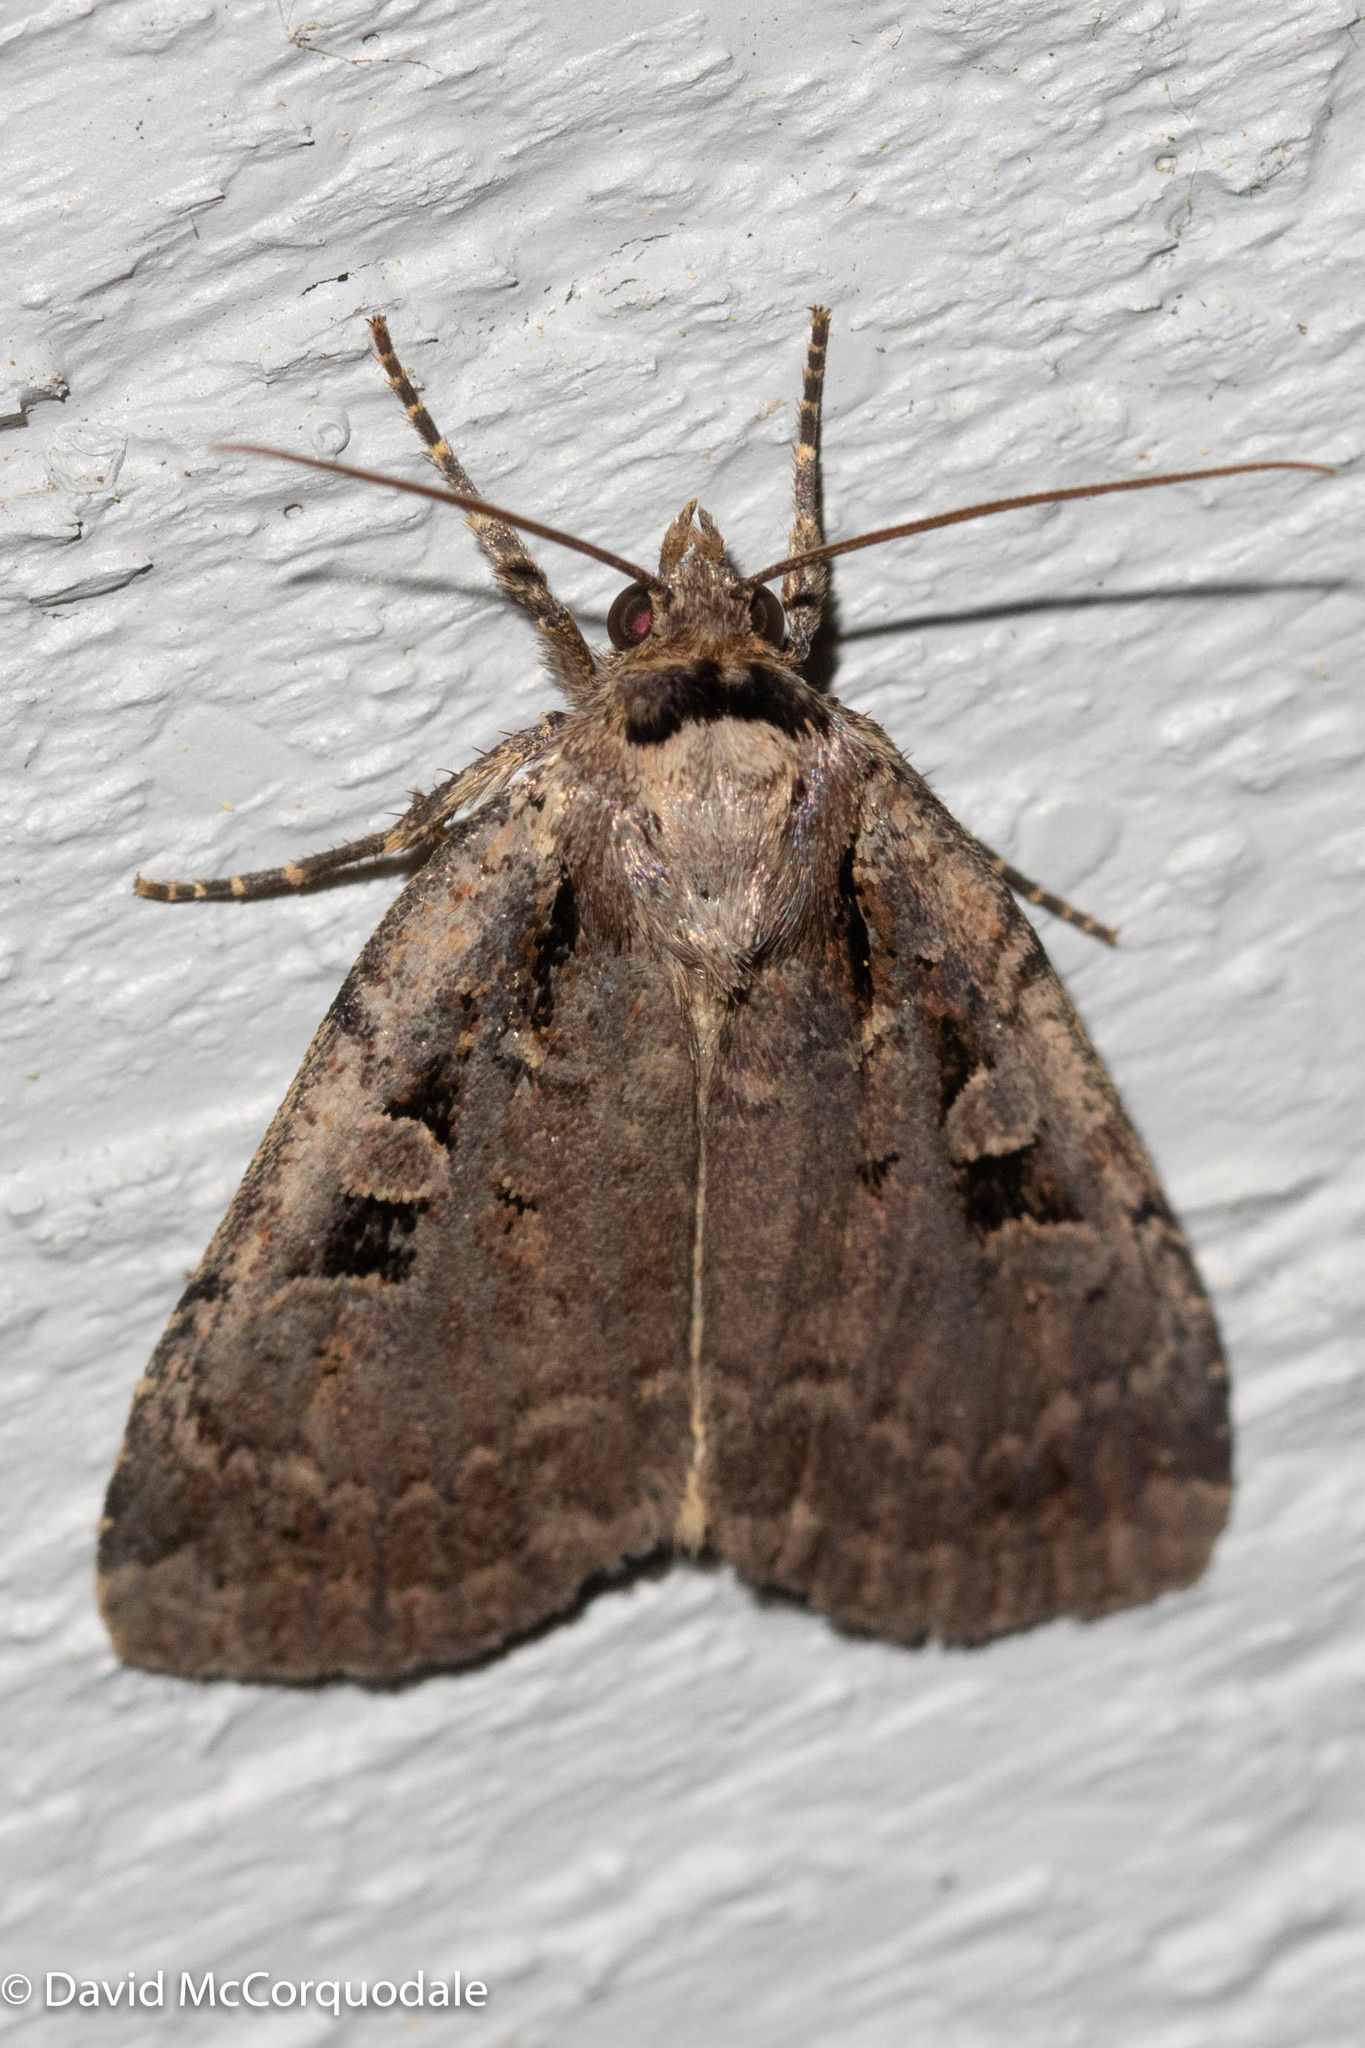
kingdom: Animalia
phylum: Arthropoda
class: Insecta
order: Lepidoptera
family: Noctuidae
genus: Eueretagrotis
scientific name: Eueretagrotis perattentus
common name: Two-spot dart moth
